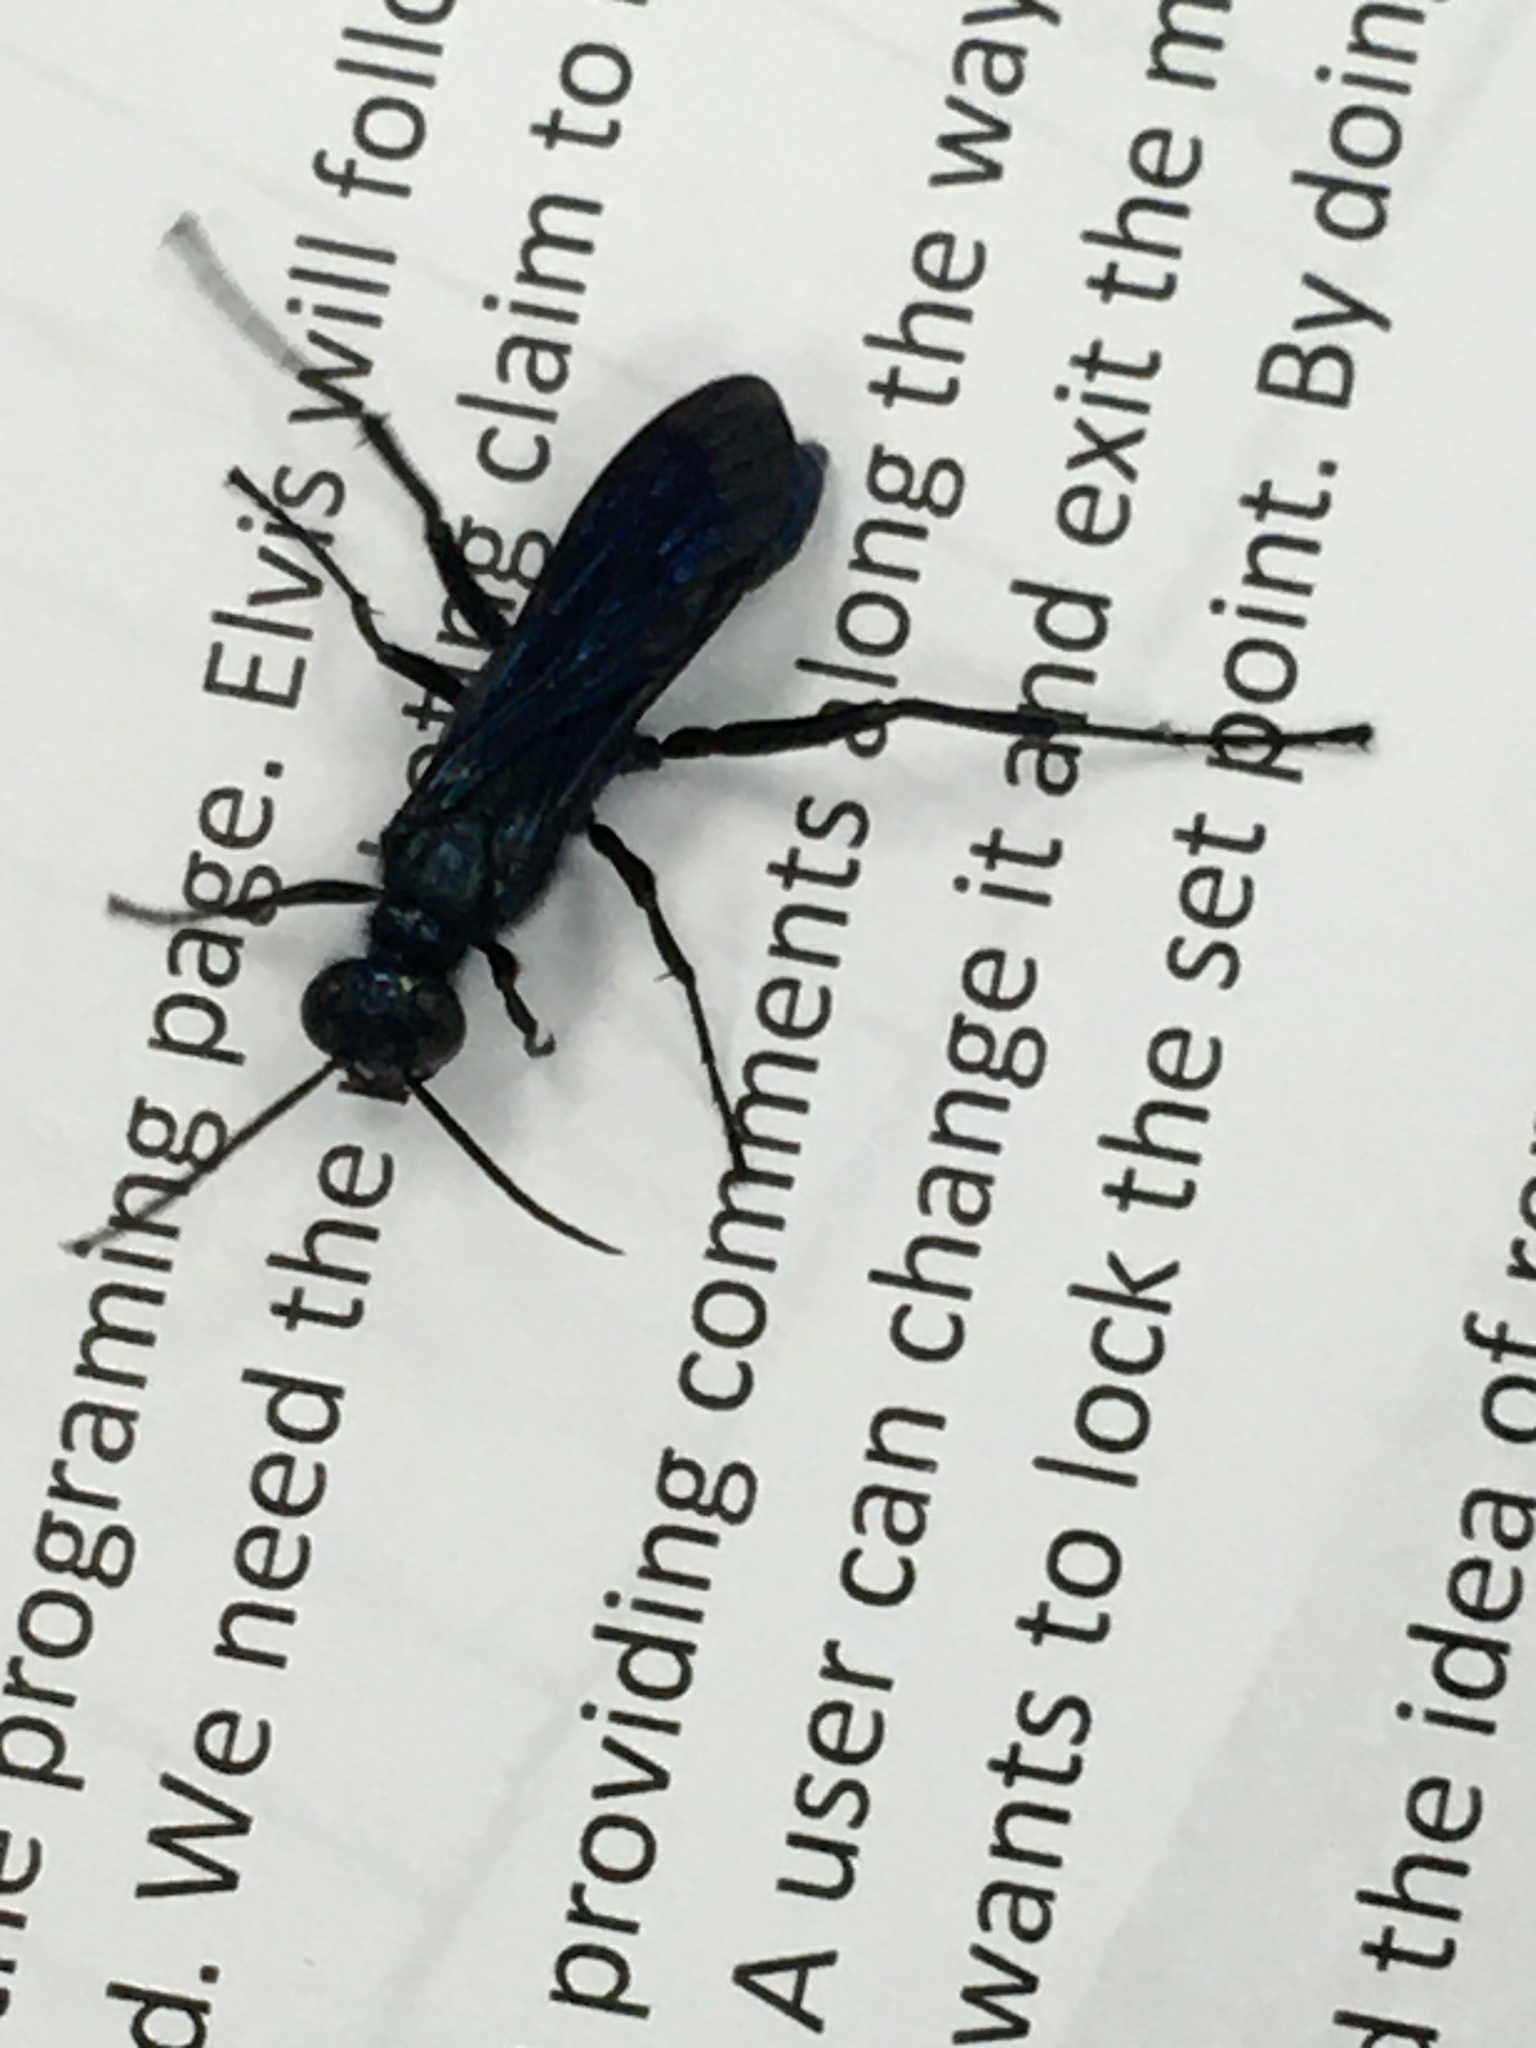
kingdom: Animalia
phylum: Arthropoda
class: Insecta
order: Hymenoptera
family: Sphecidae
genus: Chalybion
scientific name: Chalybion californicum
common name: Mud dauber
